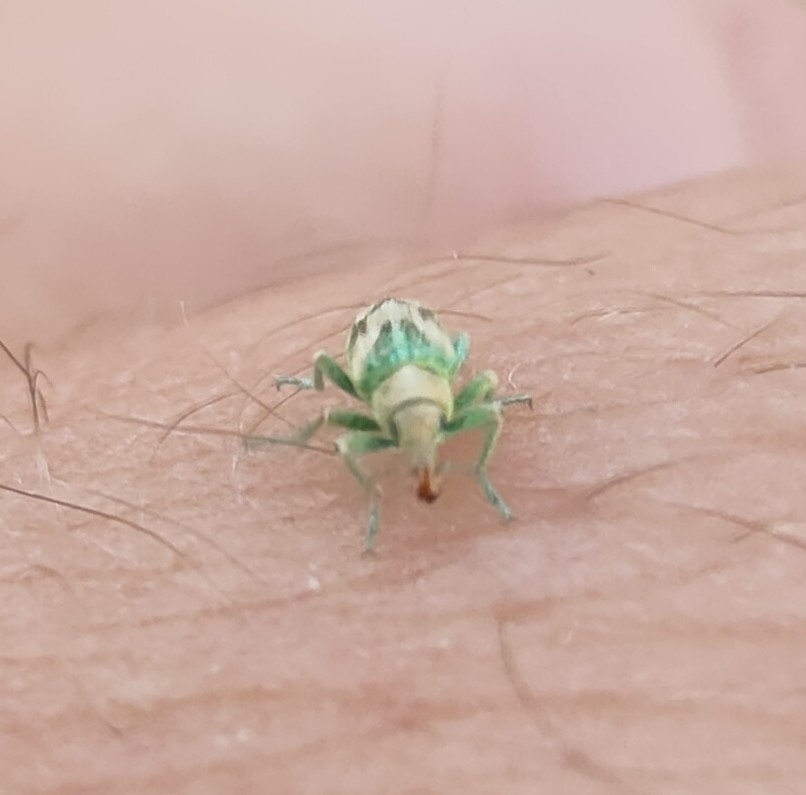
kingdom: Animalia
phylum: Arthropoda
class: Insecta
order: Coleoptera
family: Curculionidae
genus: Coniatus
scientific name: Coniatus splendidulus
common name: Splendid tamarisk weevil
